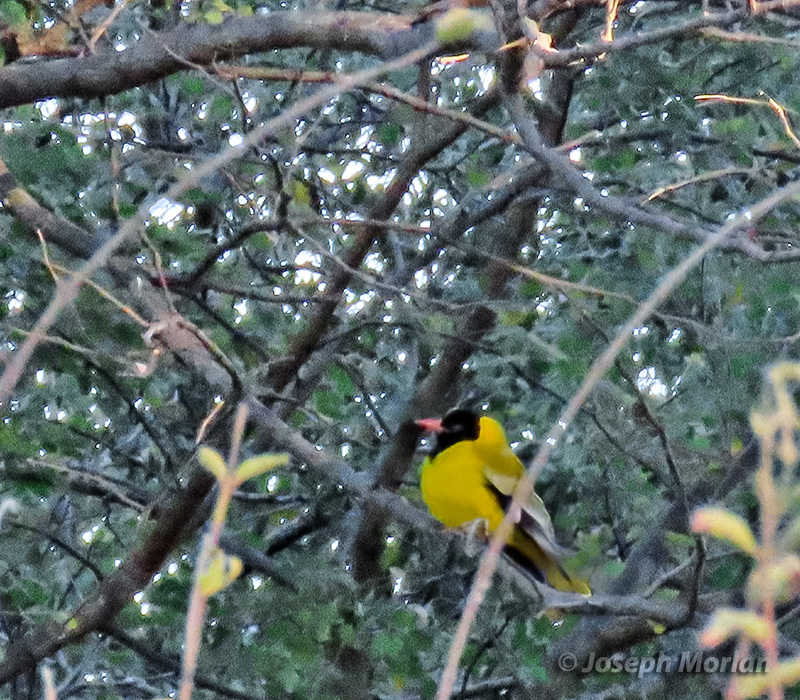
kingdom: Animalia
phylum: Chordata
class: Aves
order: Passeriformes
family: Oriolidae
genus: Oriolus
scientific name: Oriolus larvatus
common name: Black-headed oriole
